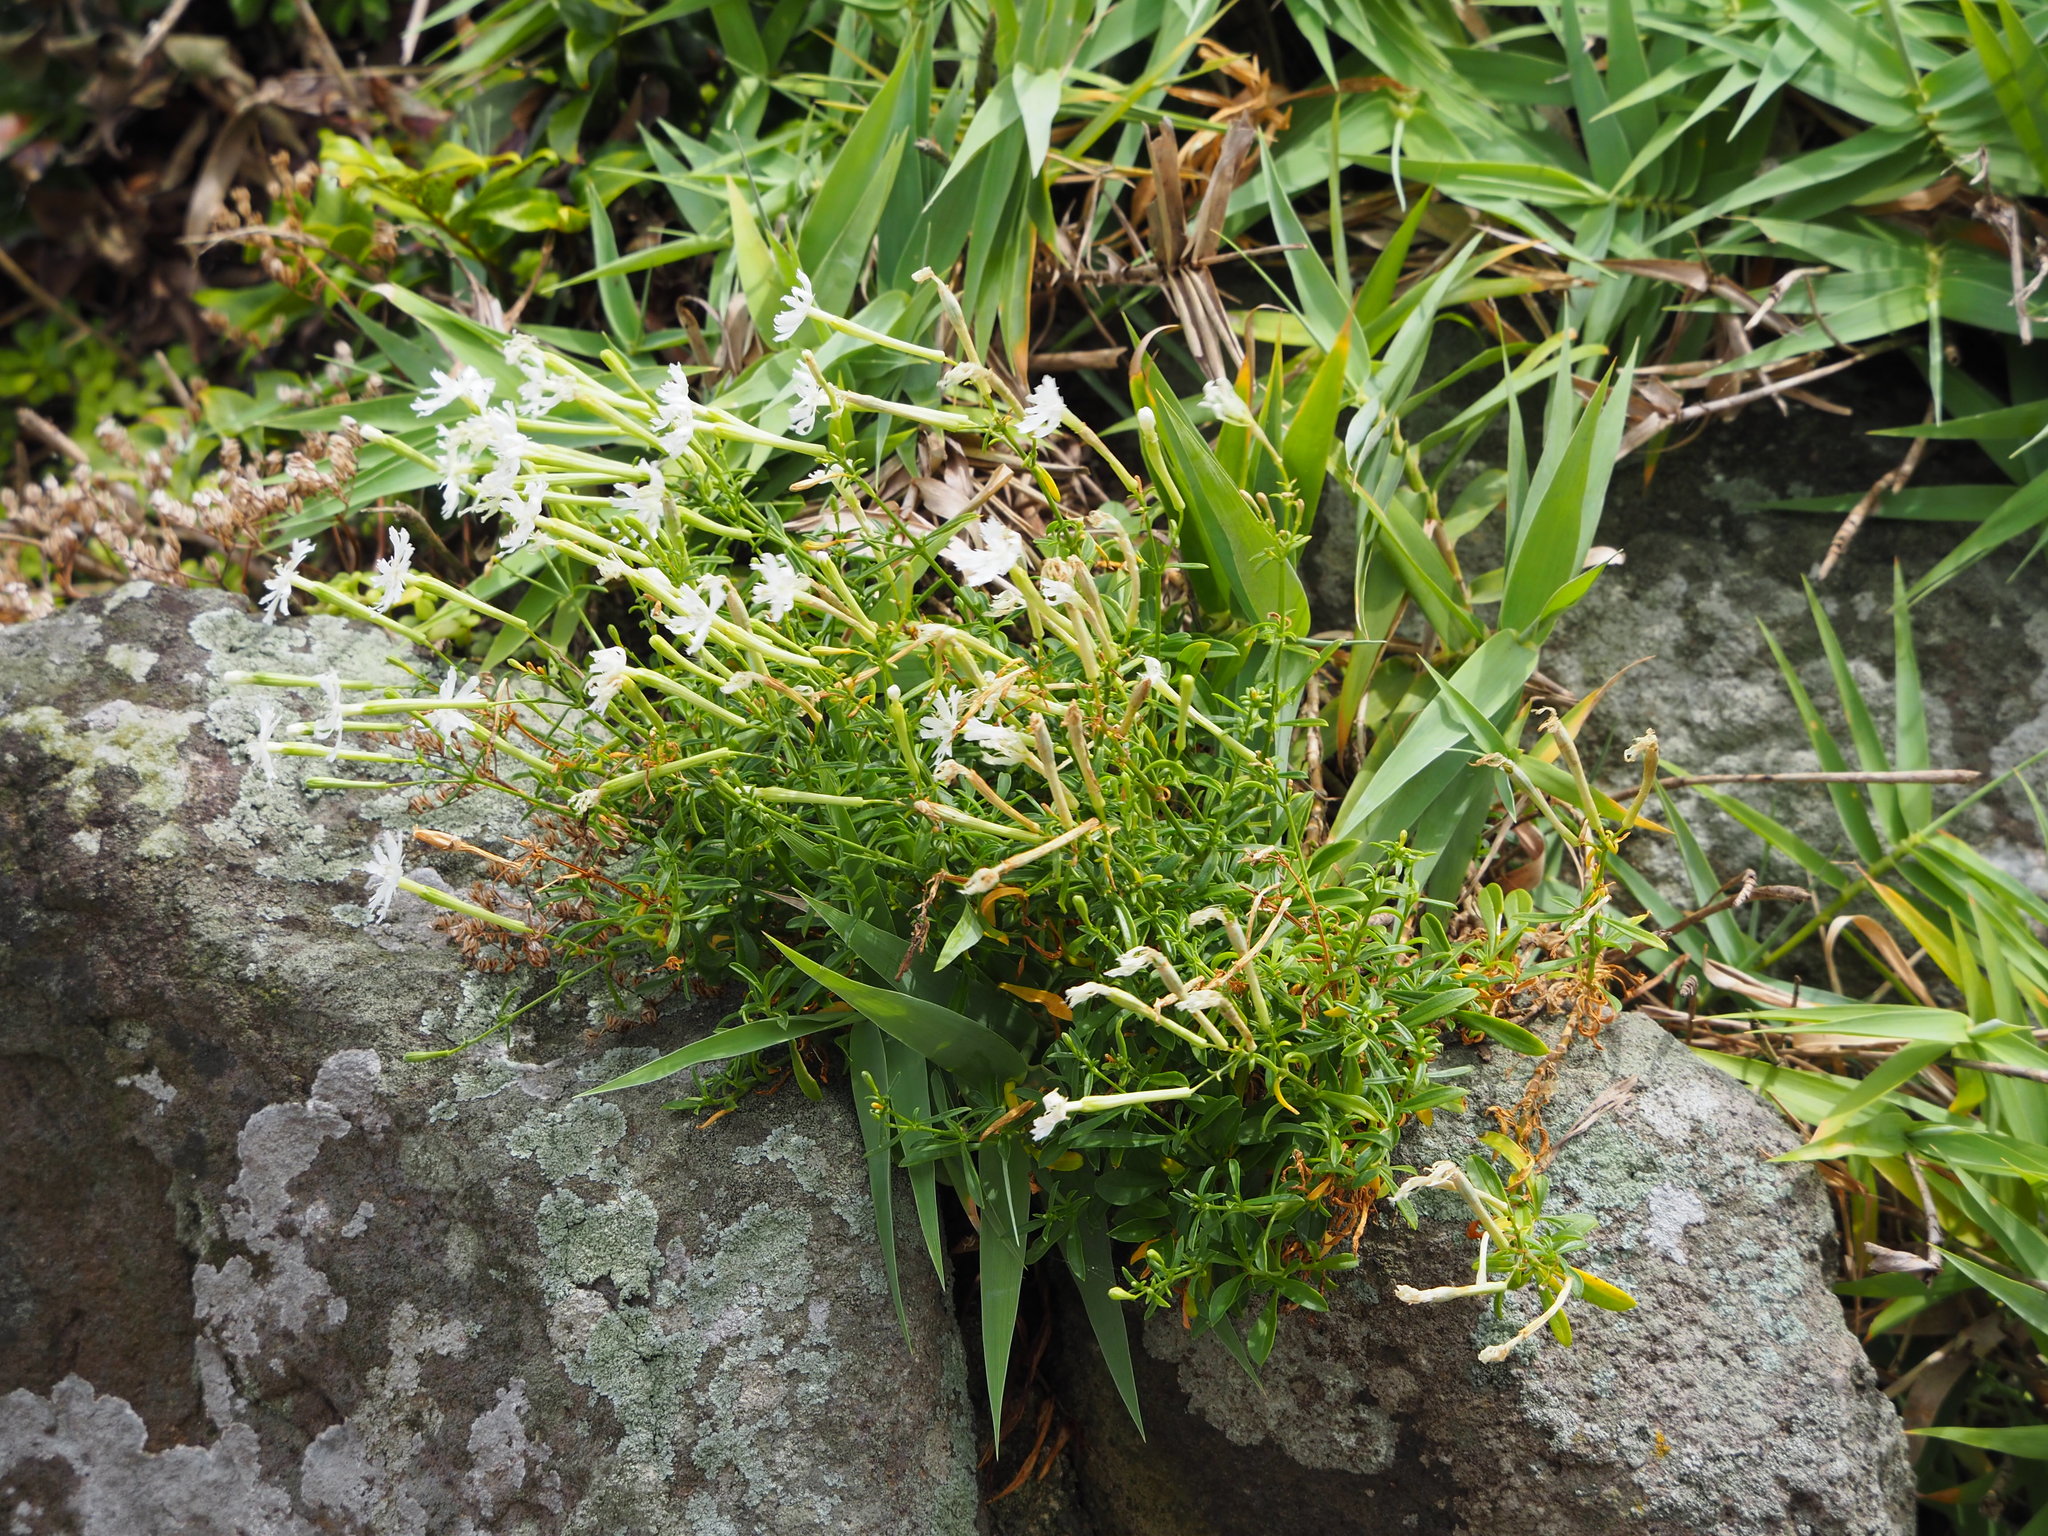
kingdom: Plantae
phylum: Tracheophyta
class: Magnoliopsida
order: Caryophyllales
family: Caryophyllaceae
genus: Silene
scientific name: Silene fissipetala
